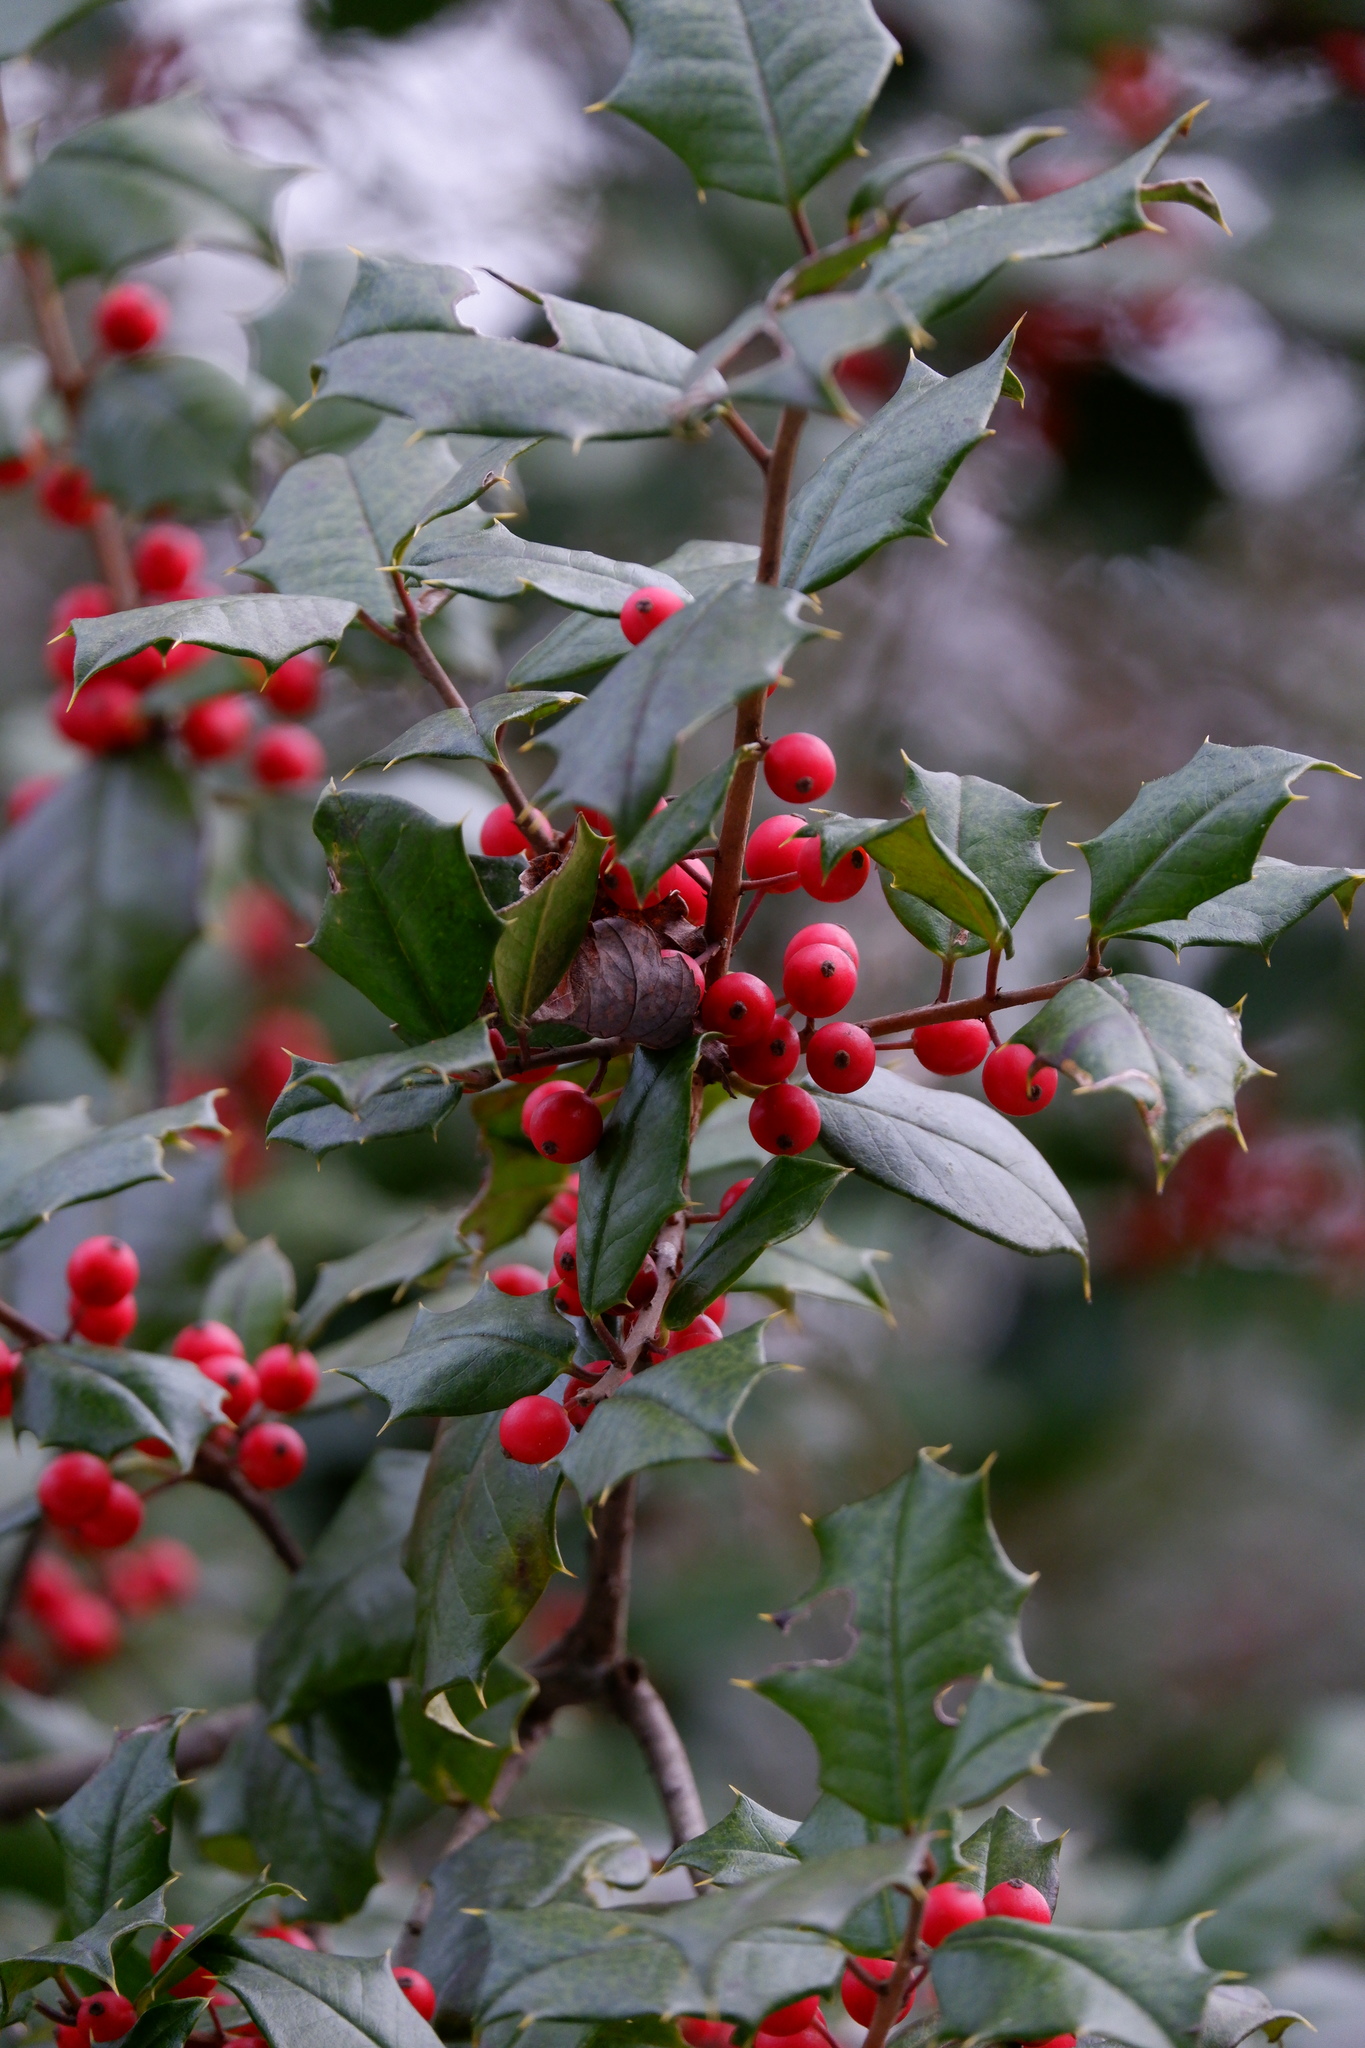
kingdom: Plantae
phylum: Tracheophyta
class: Magnoliopsida
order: Aquifoliales
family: Aquifoliaceae
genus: Ilex
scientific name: Ilex opaca
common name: American holly
